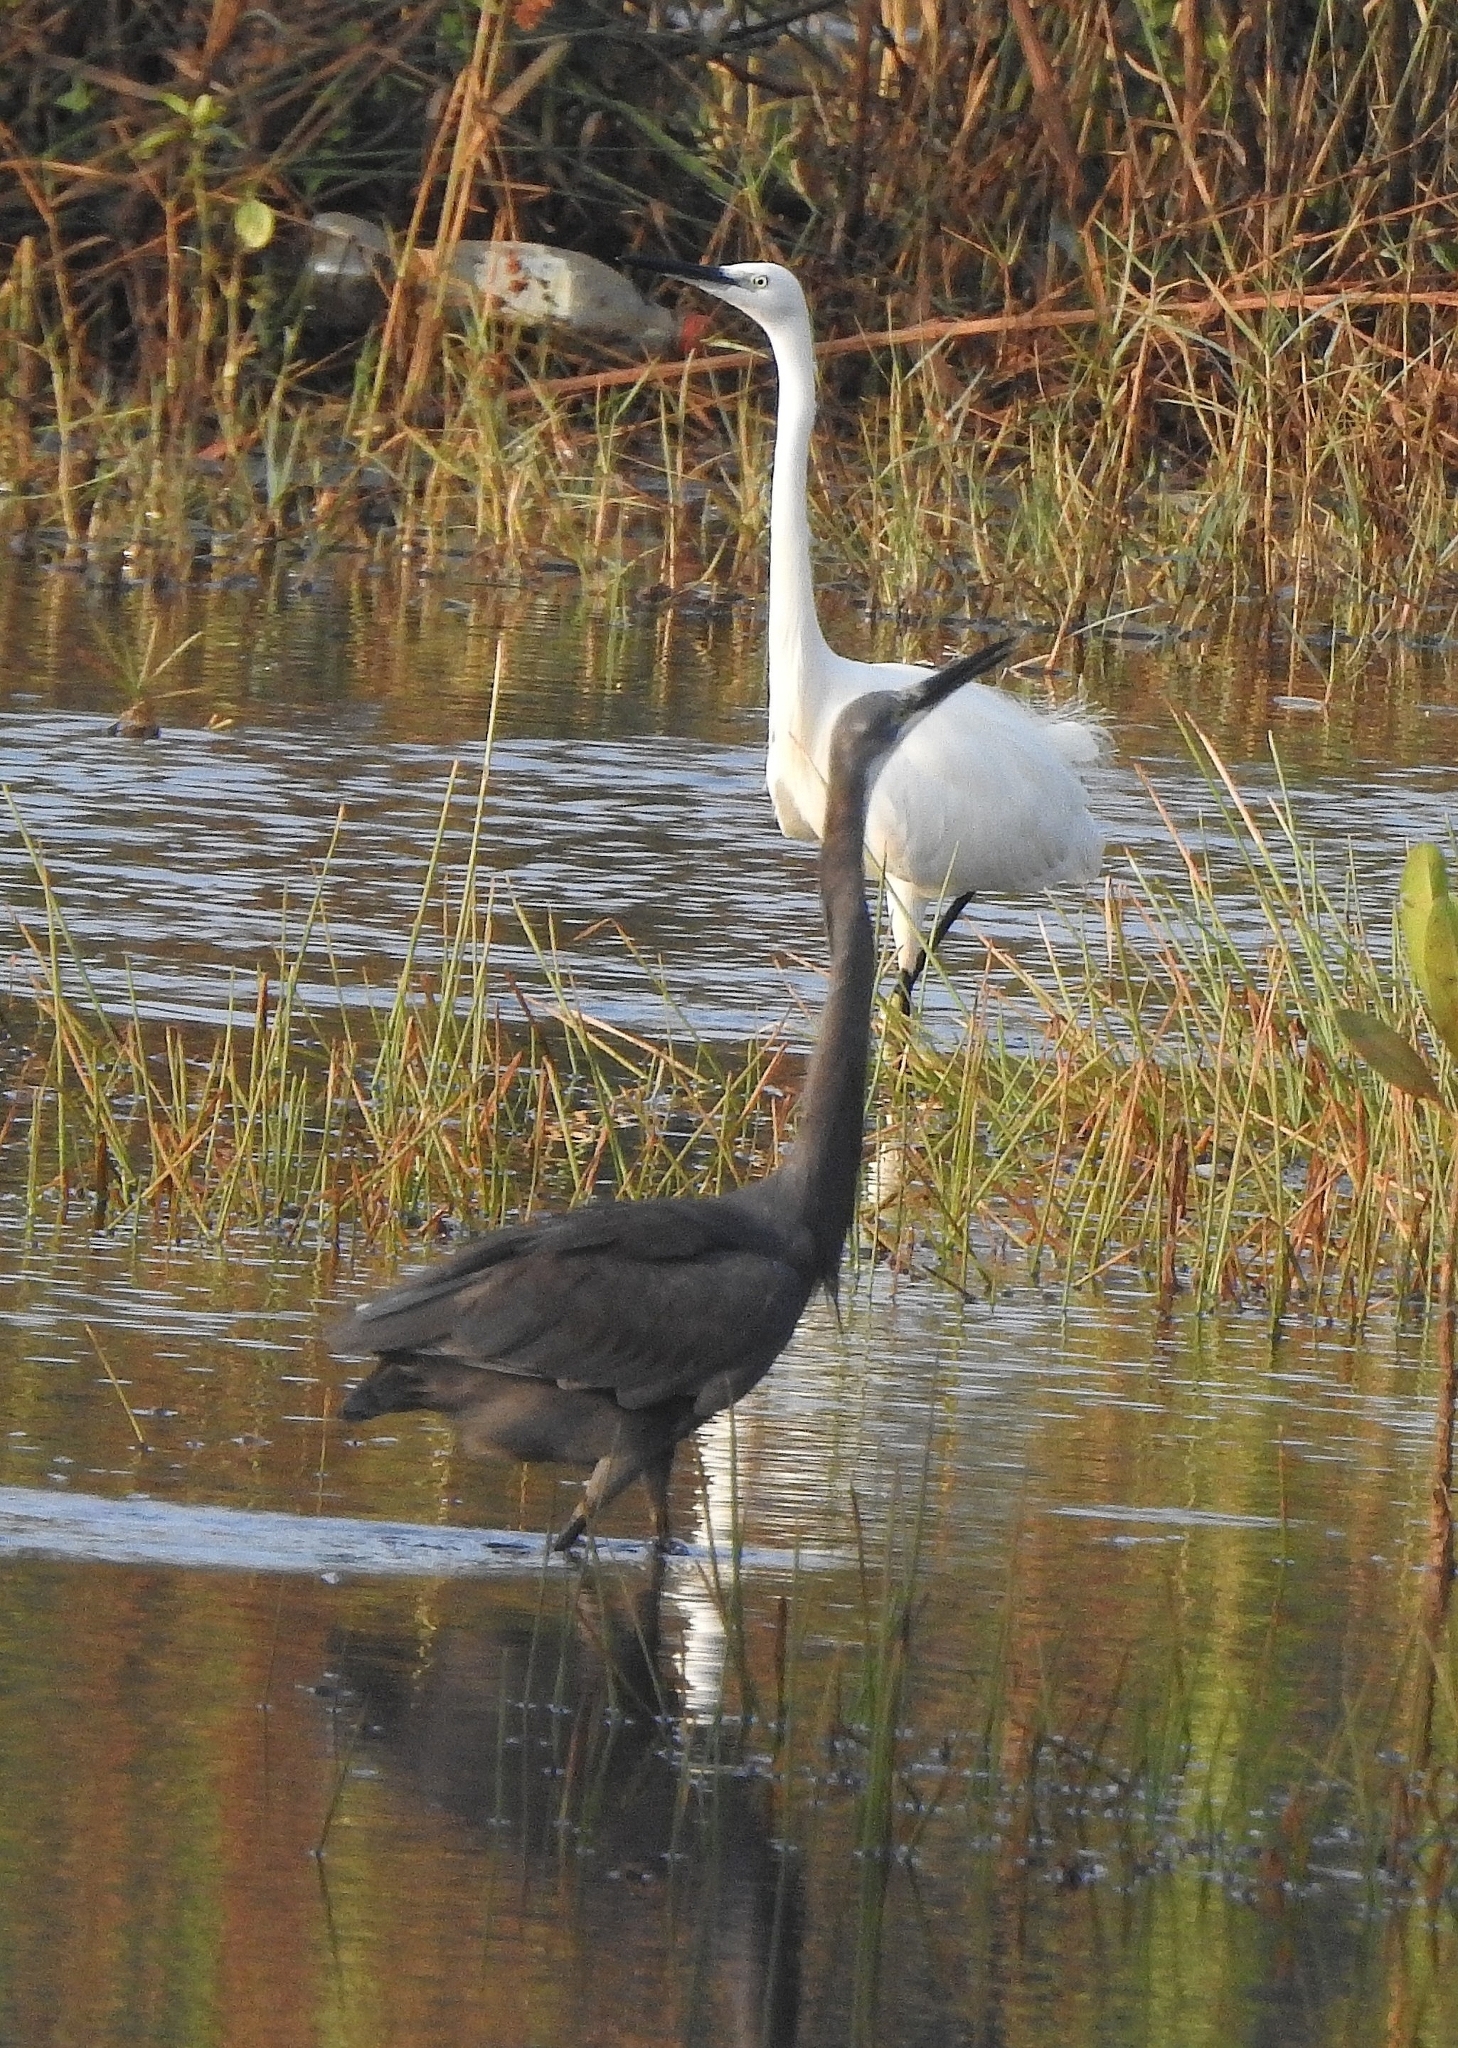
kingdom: Animalia
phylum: Chordata
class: Aves
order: Pelecaniformes
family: Ardeidae
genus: Egretta
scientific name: Egretta garzetta
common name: Little egret
